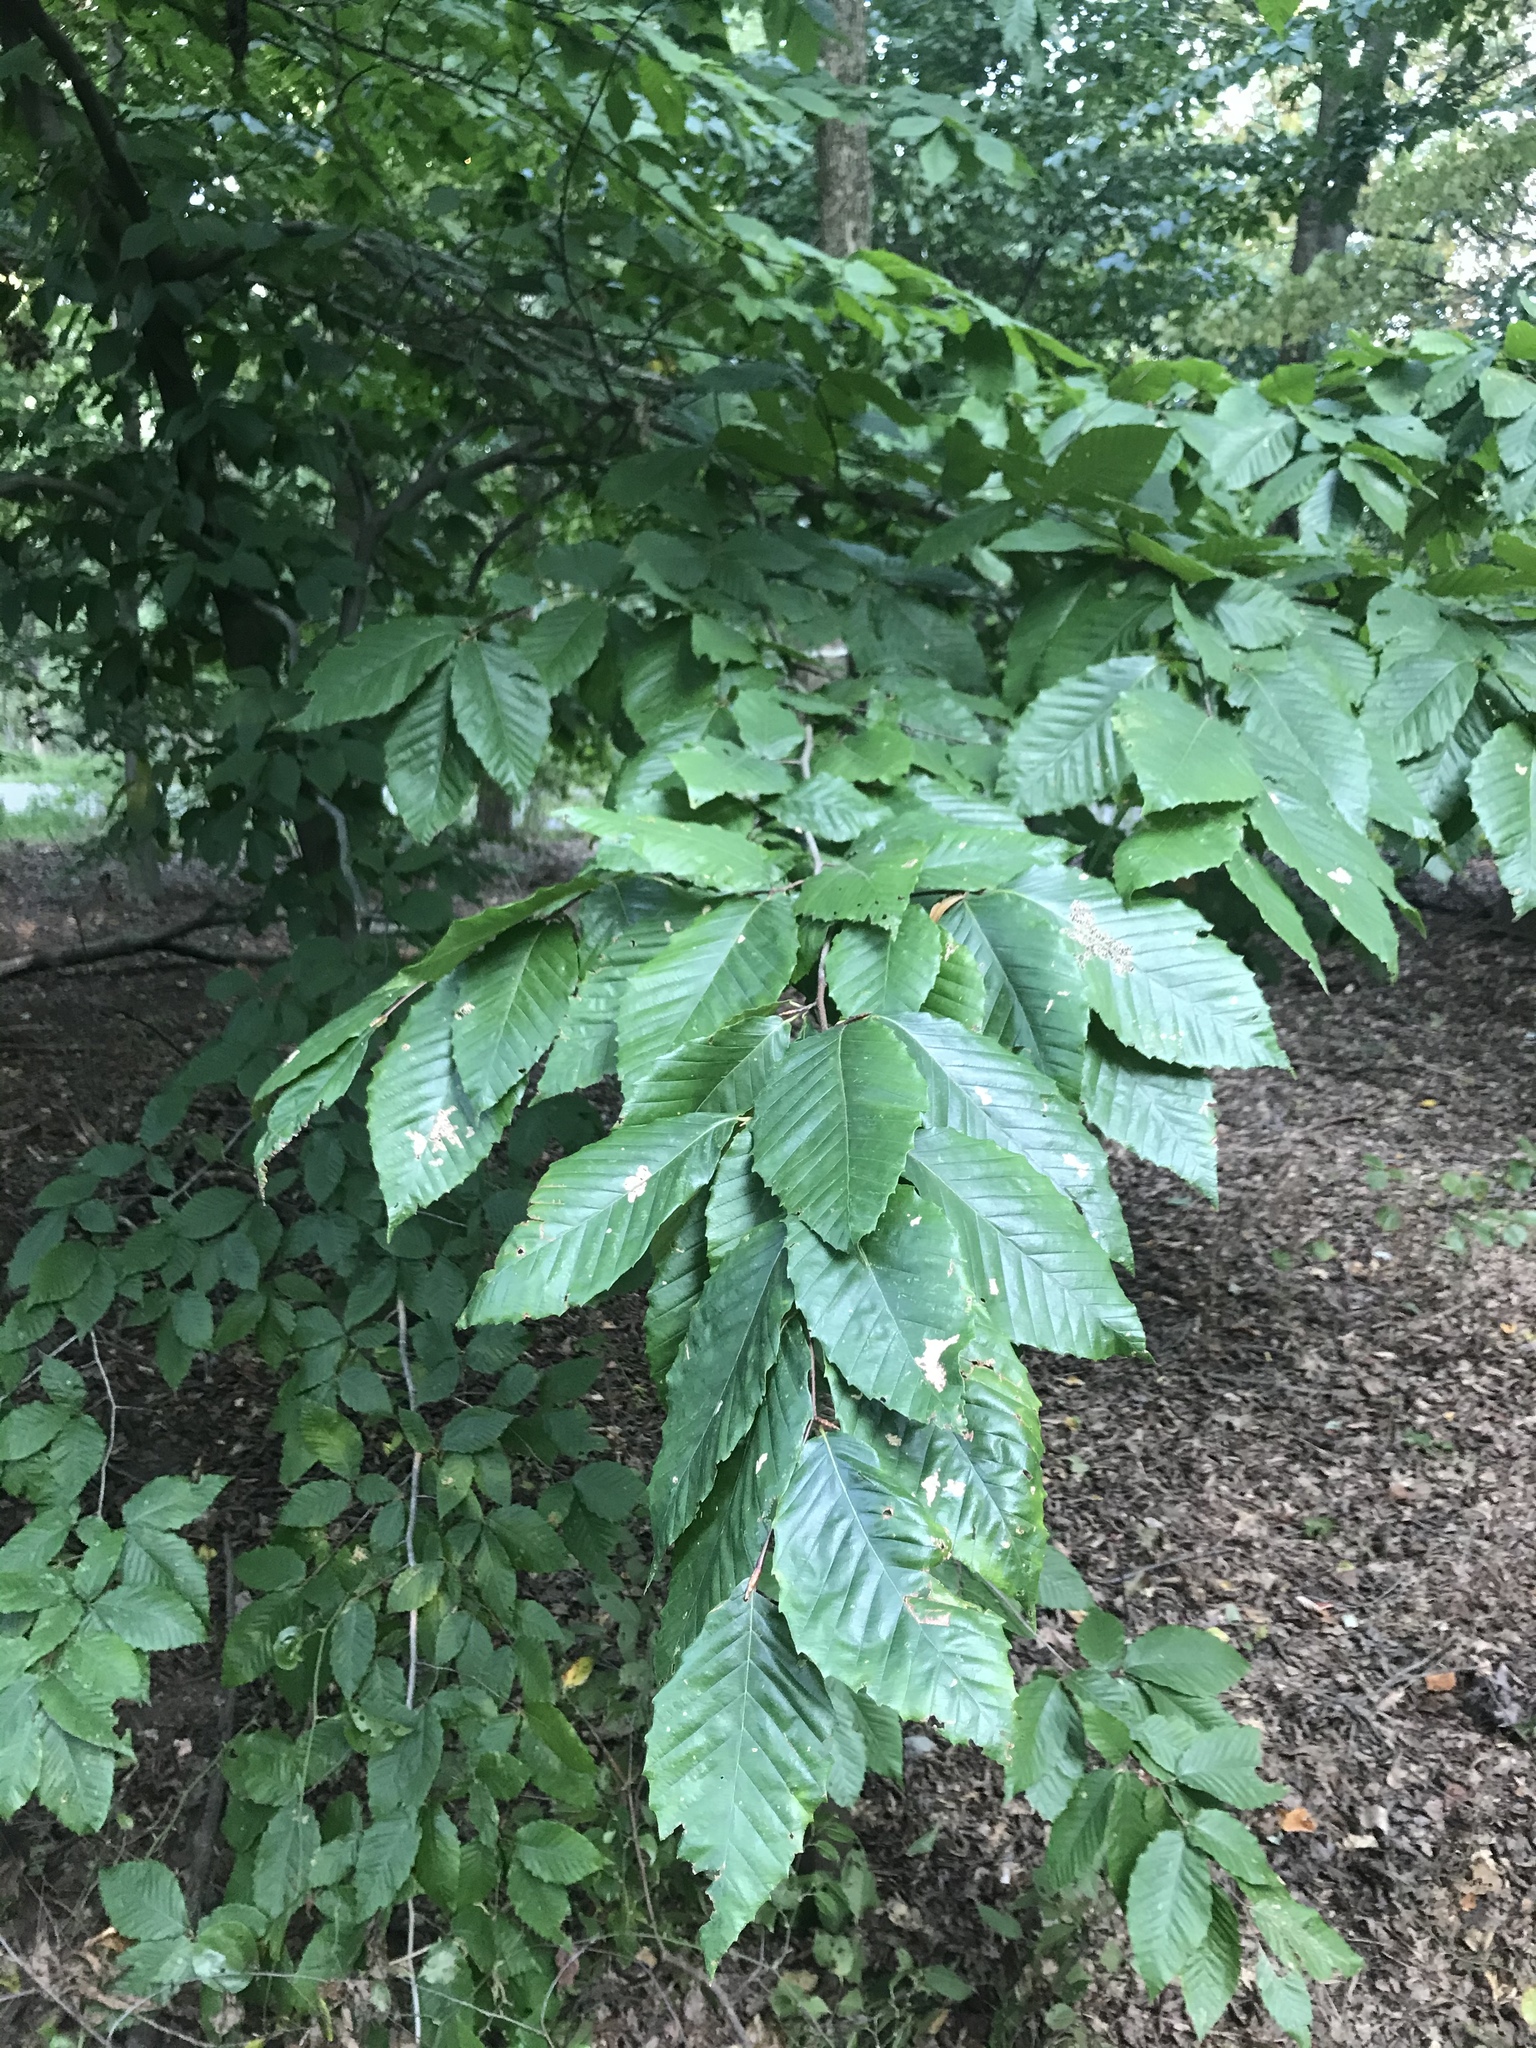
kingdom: Plantae
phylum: Tracheophyta
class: Magnoliopsida
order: Fagales
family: Fagaceae
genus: Fagus
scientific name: Fagus grandifolia
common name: American beech
